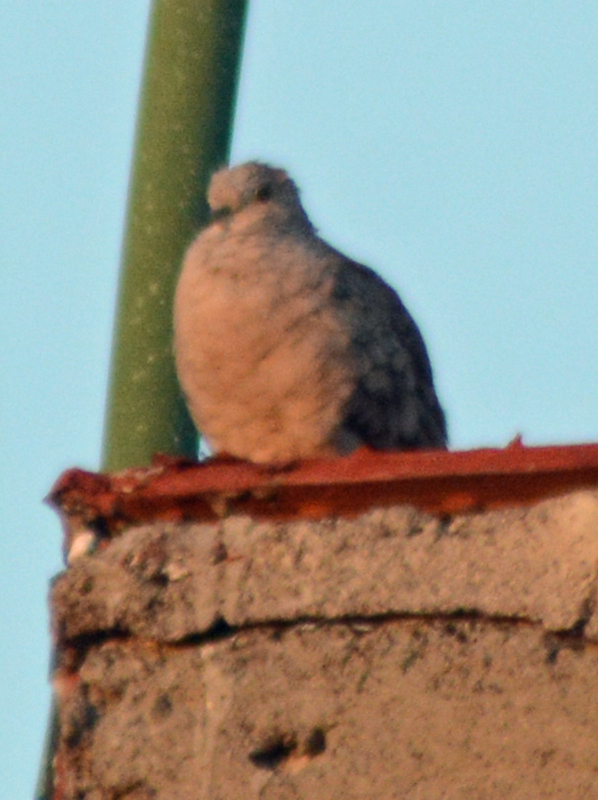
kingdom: Animalia
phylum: Chordata
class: Aves
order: Columbiformes
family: Columbidae
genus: Columbina
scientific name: Columbina inca
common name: Inca dove
